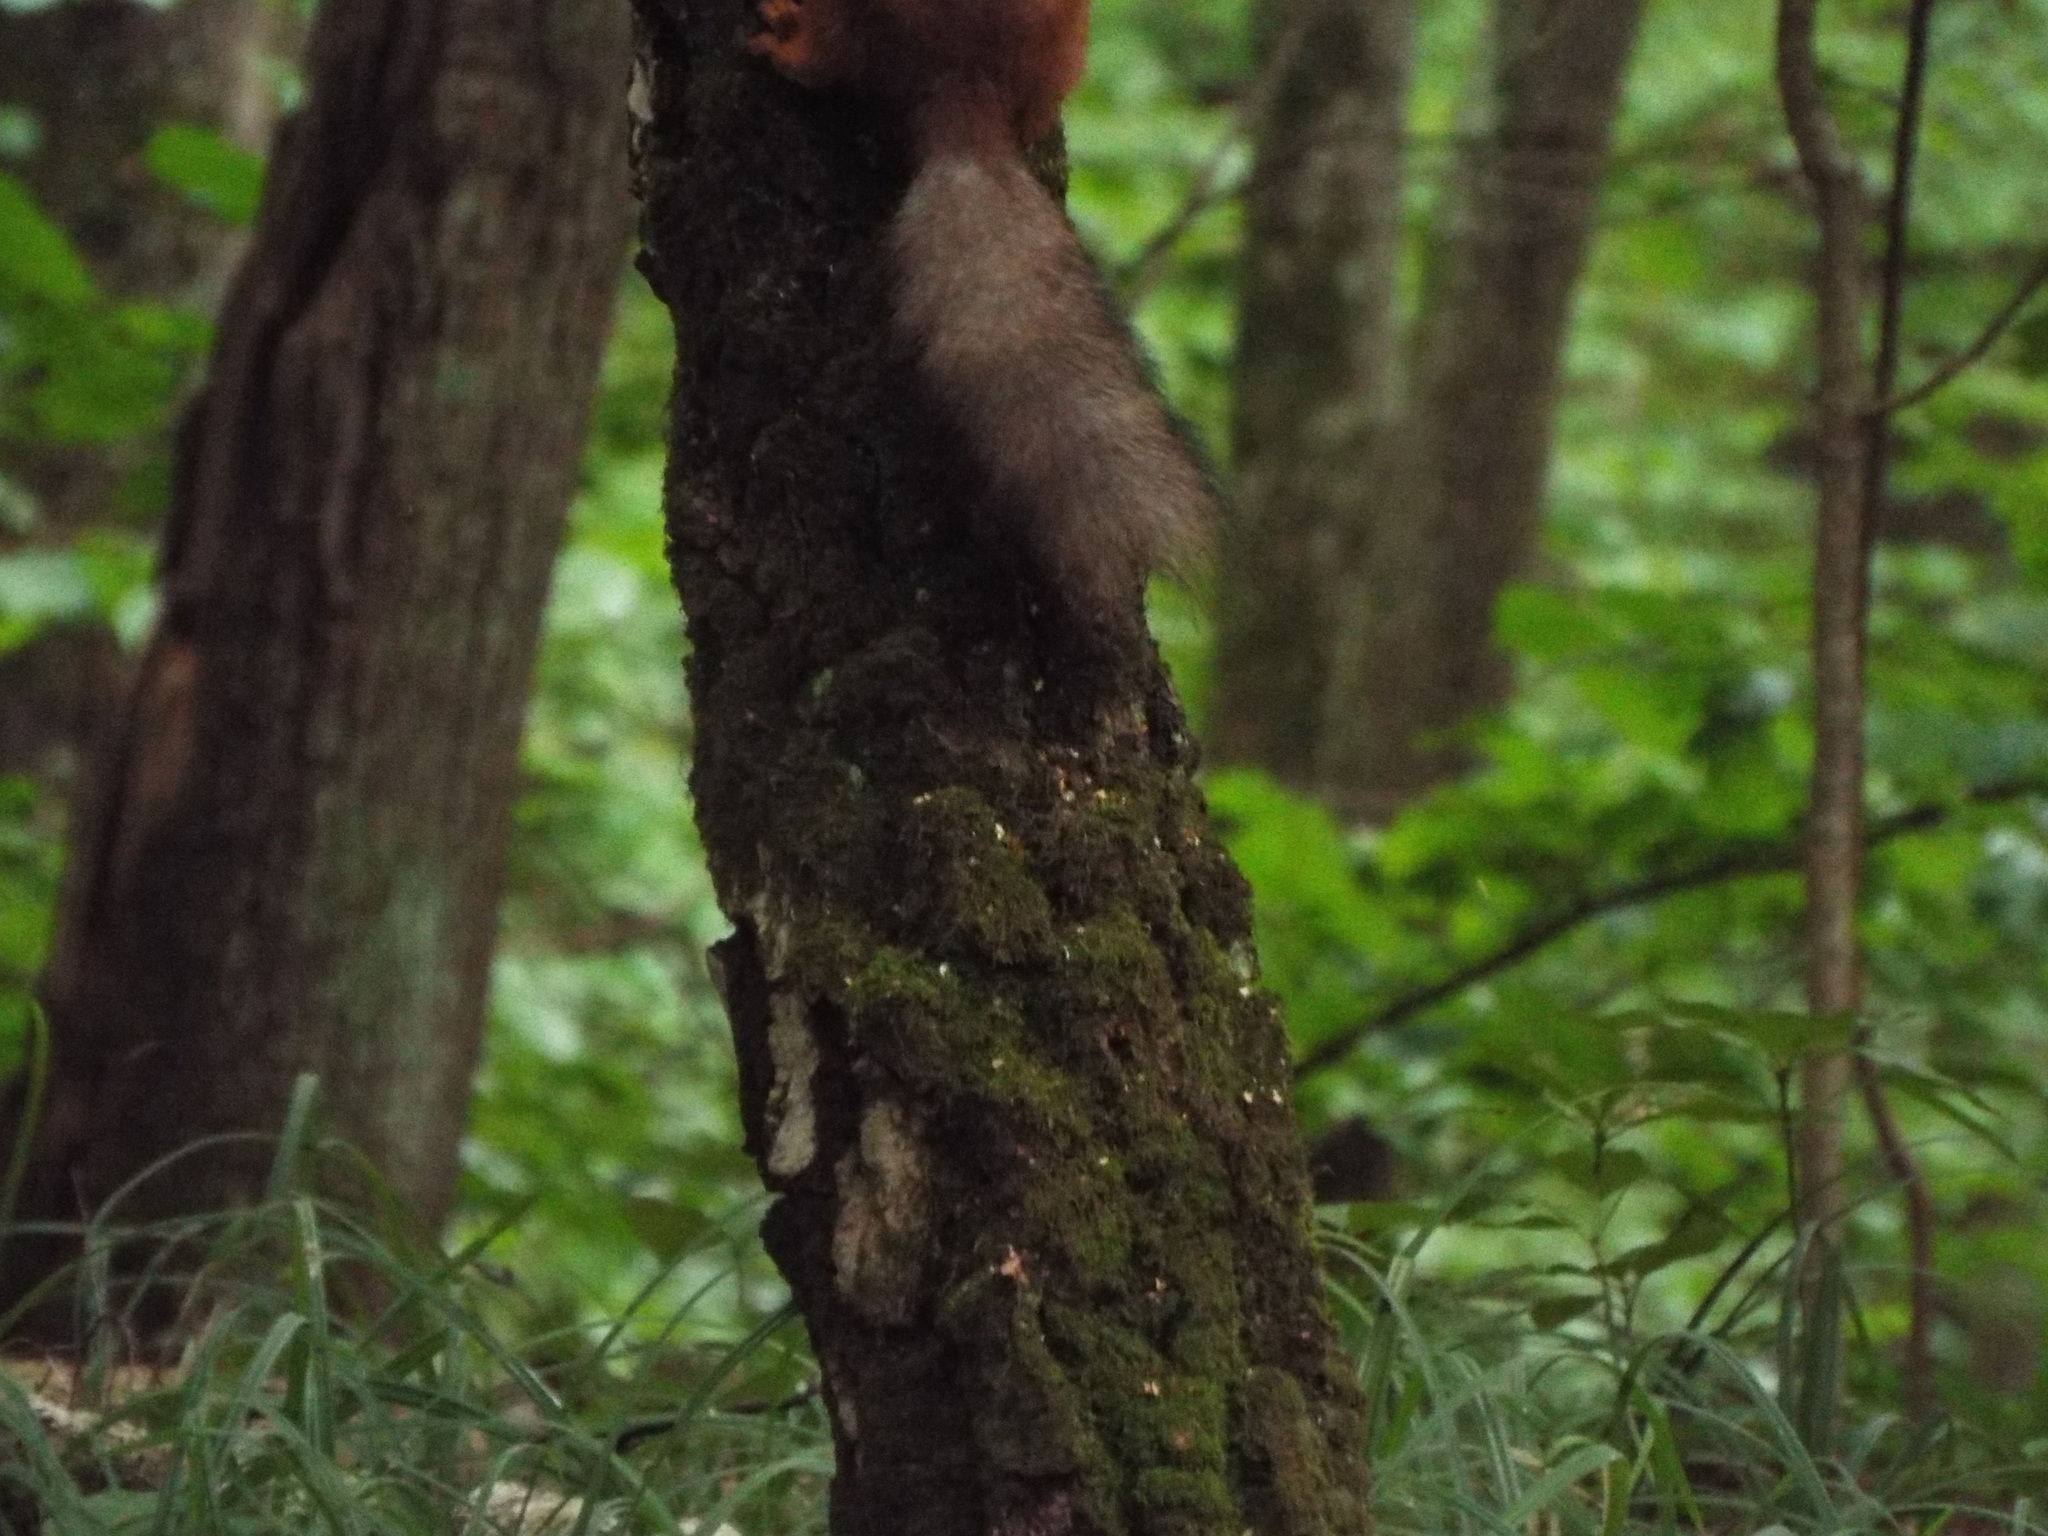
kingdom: Animalia
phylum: Chordata
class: Mammalia
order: Rodentia
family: Sciuridae
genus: Sciurus
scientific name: Sciurus vulgaris
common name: Eurasian red squirrel
